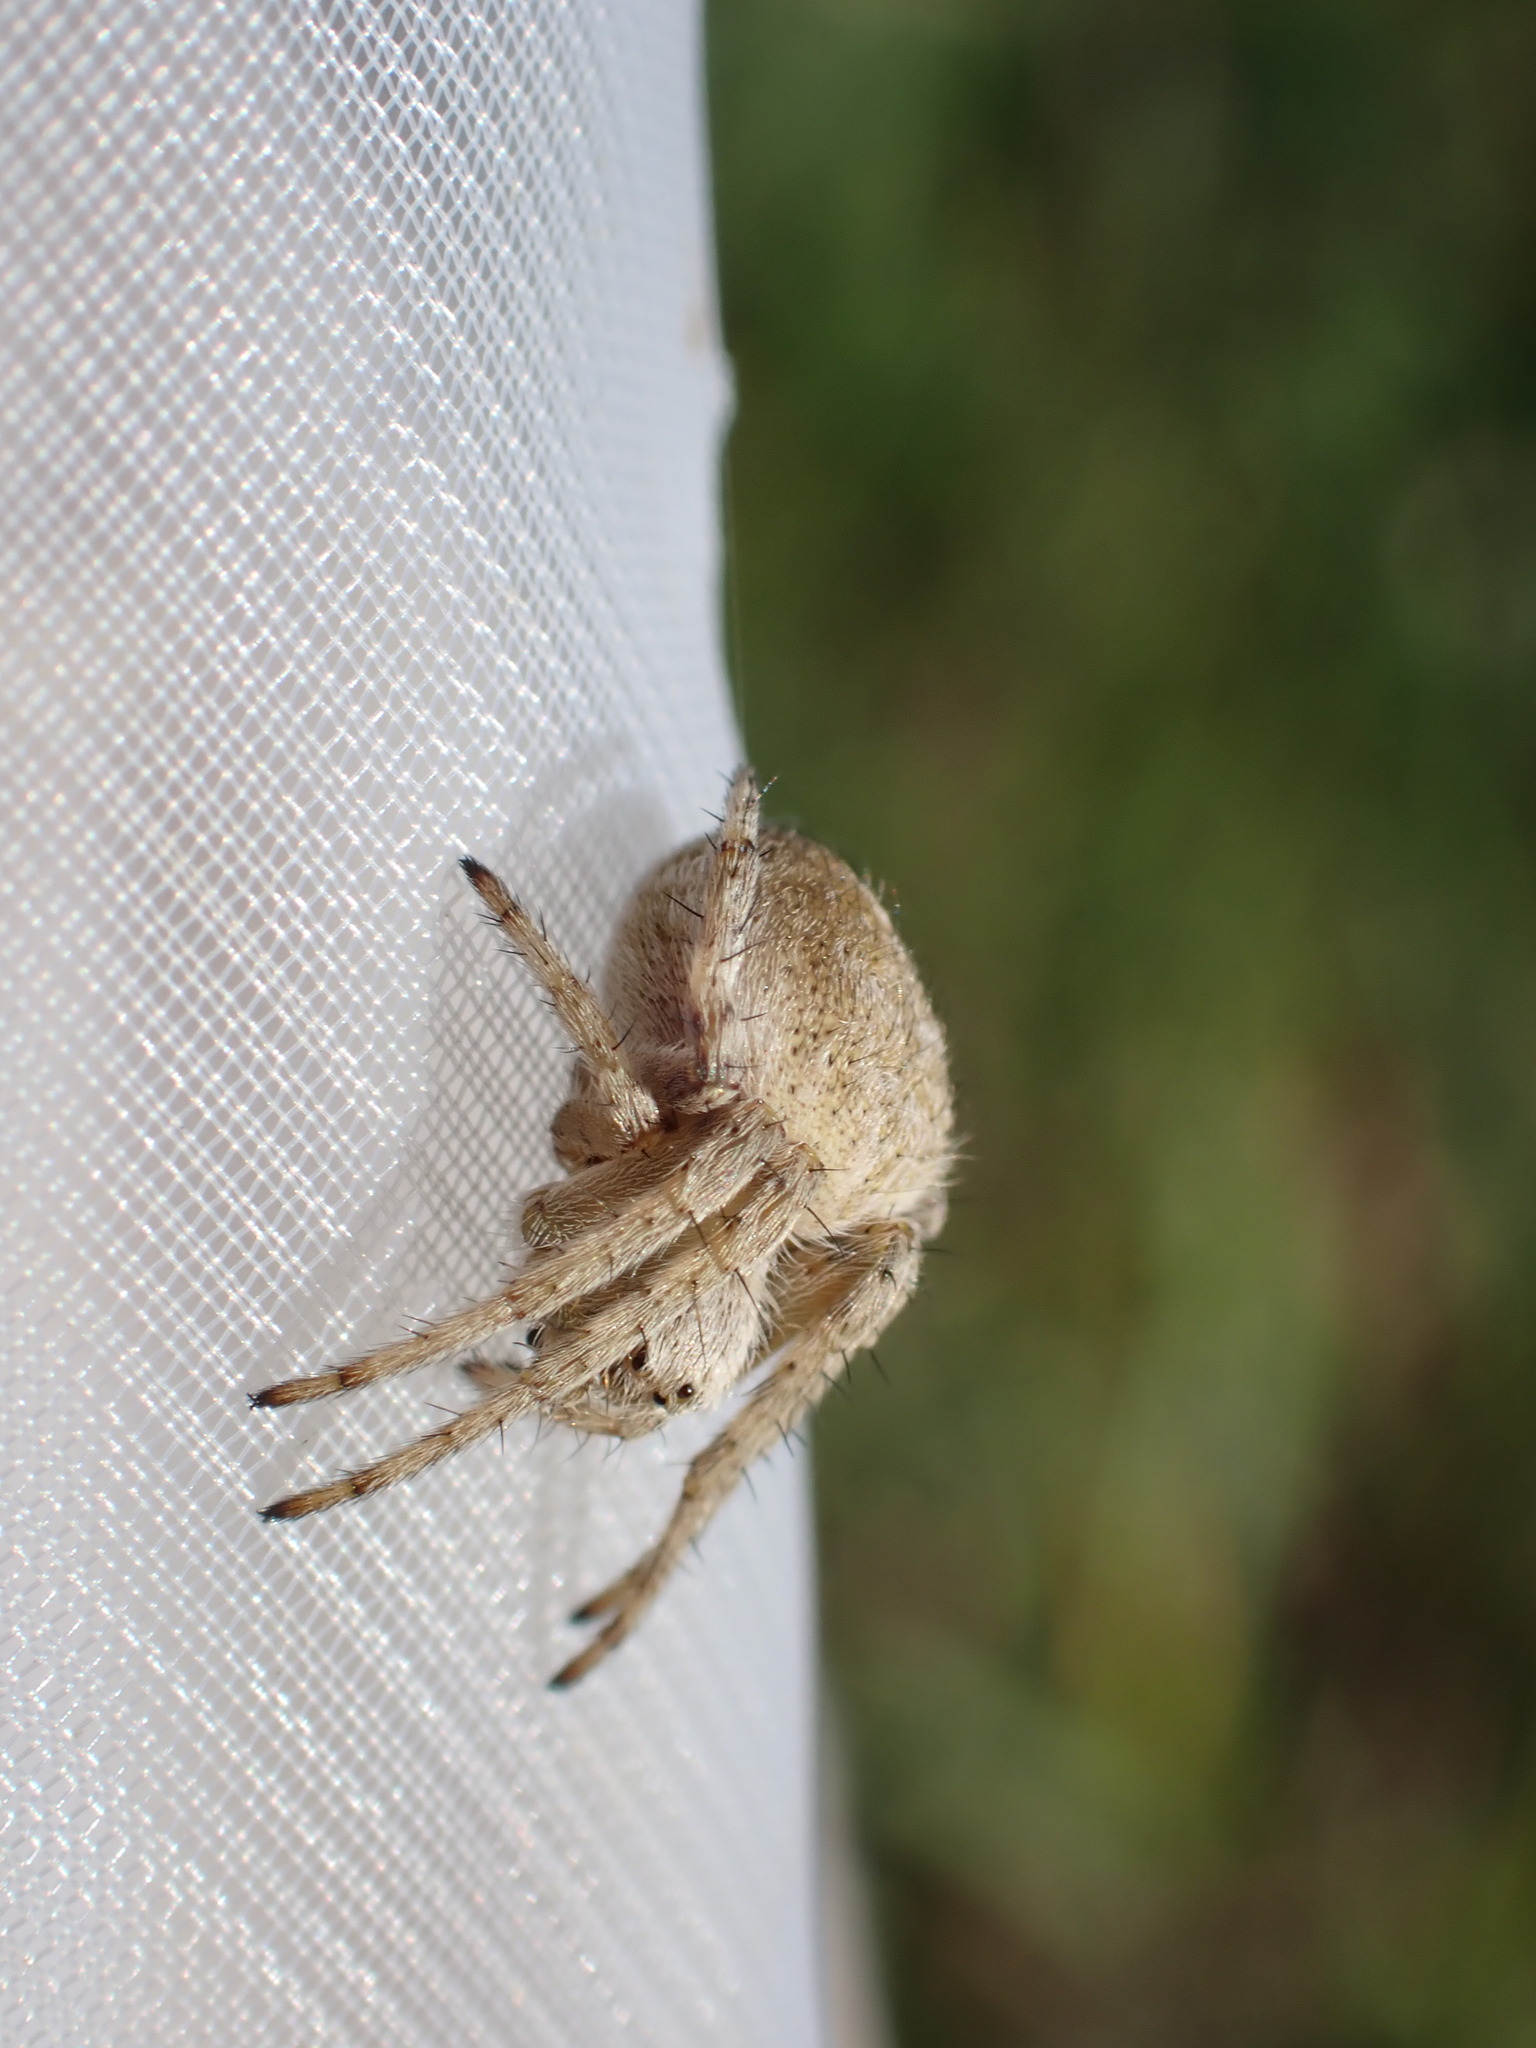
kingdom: Animalia
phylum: Arthropoda
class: Arachnida
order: Araneae
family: Araneidae
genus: Agalenatea
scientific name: Agalenatea redii
